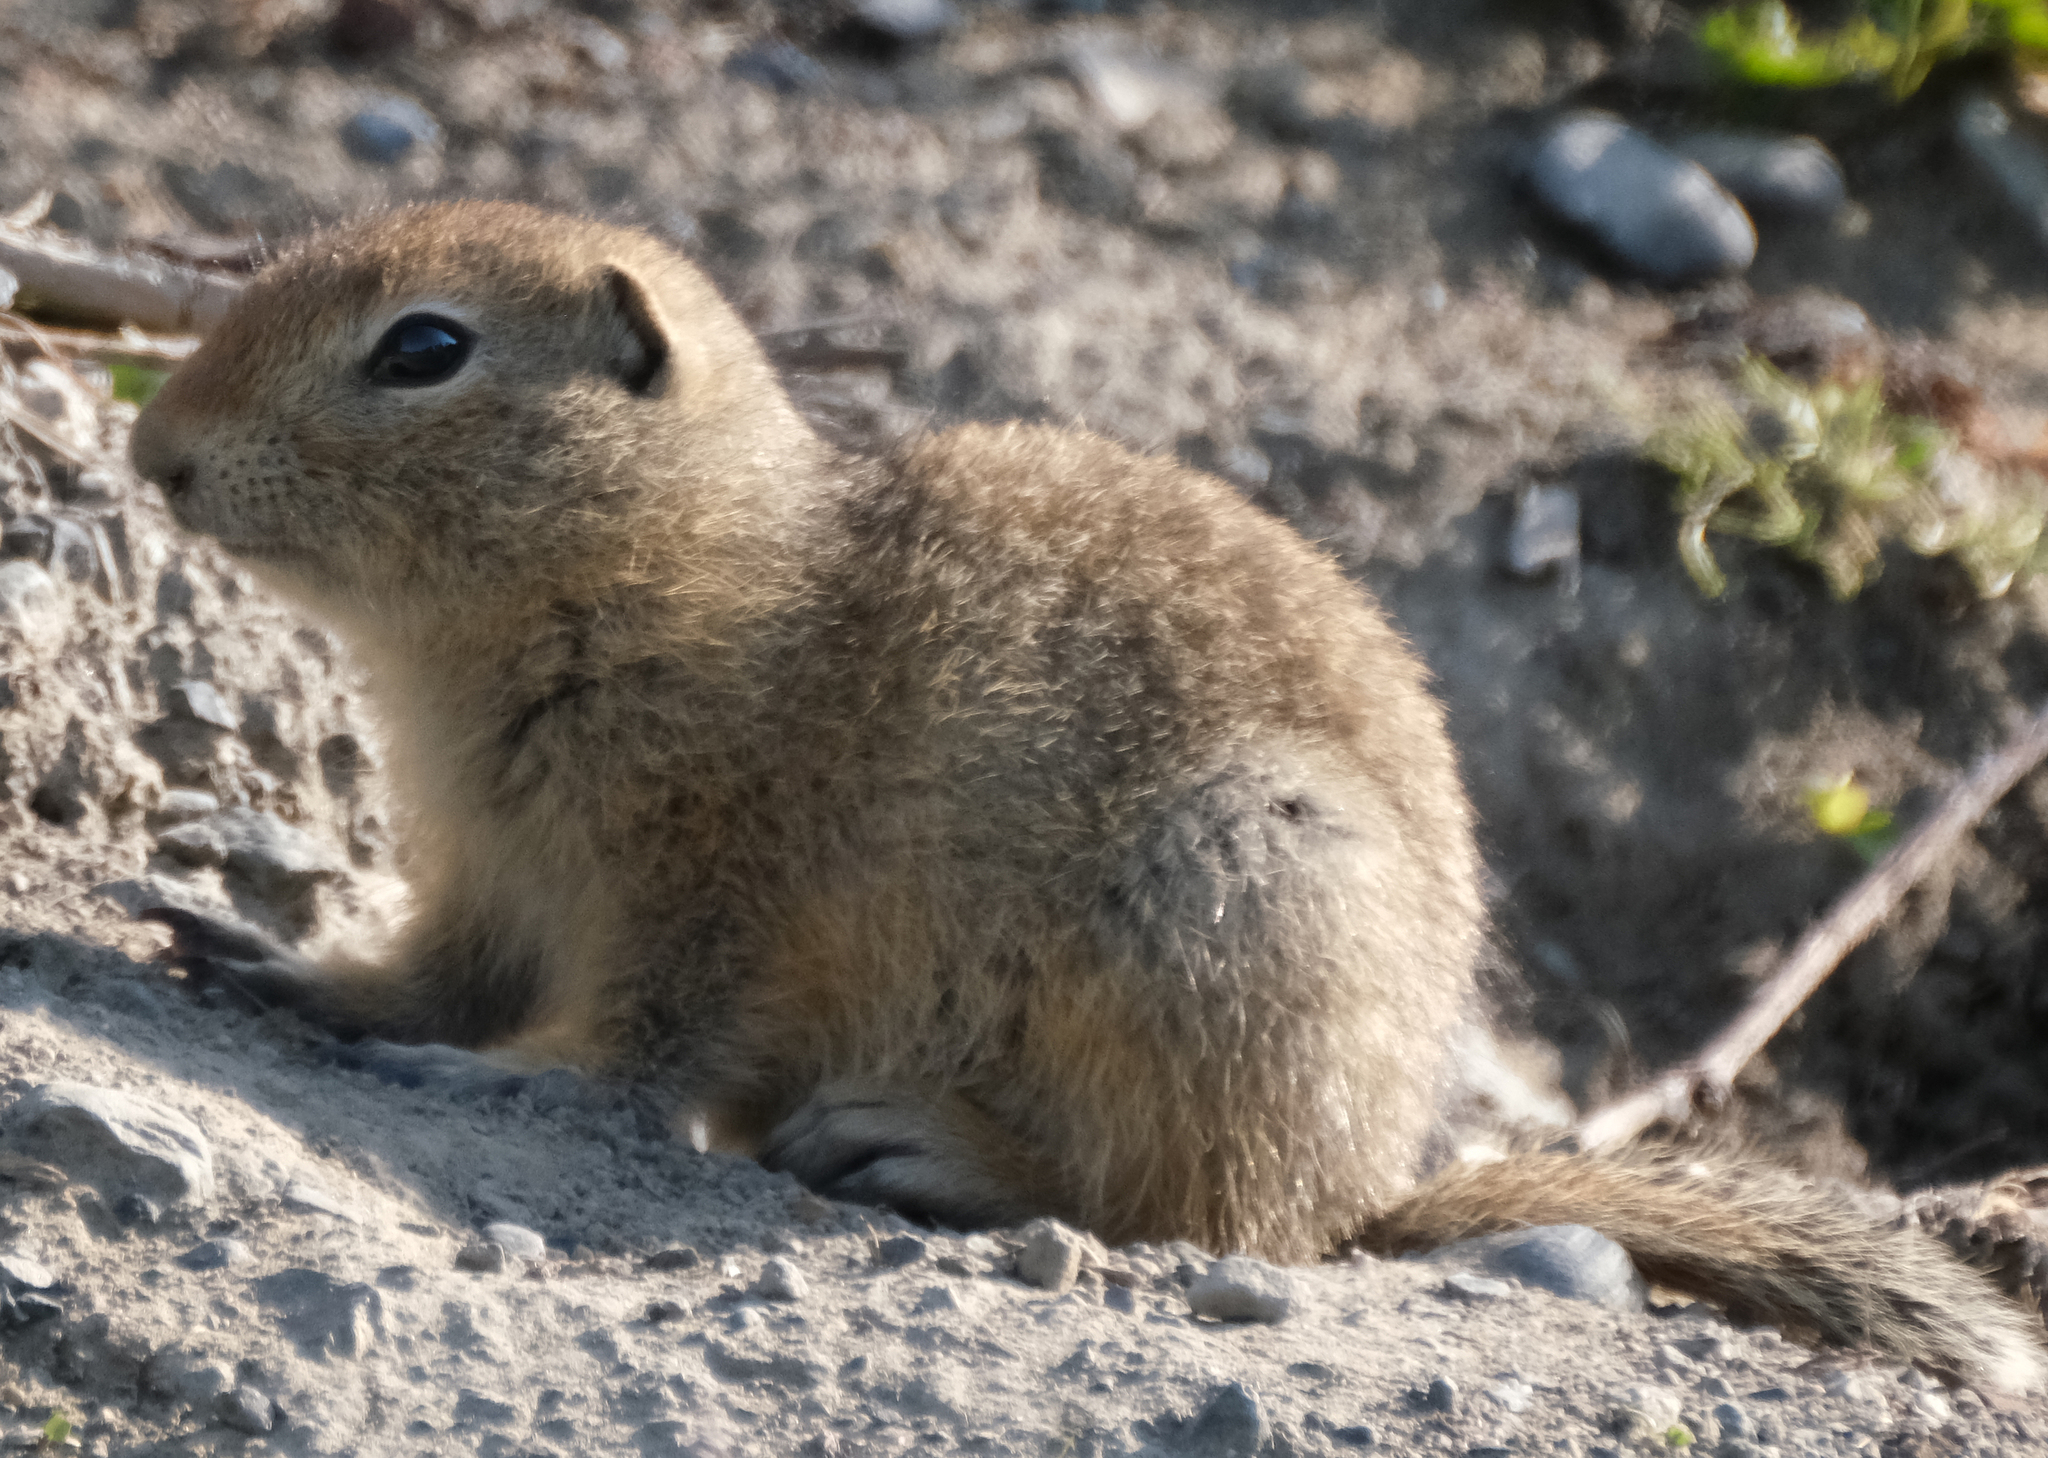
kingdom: Animalia
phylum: Chordata
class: Mammalia
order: Rodentia
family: Sciuridae
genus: Urocitellus
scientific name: Urocitellus parryii
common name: Arctic ground squirrel
